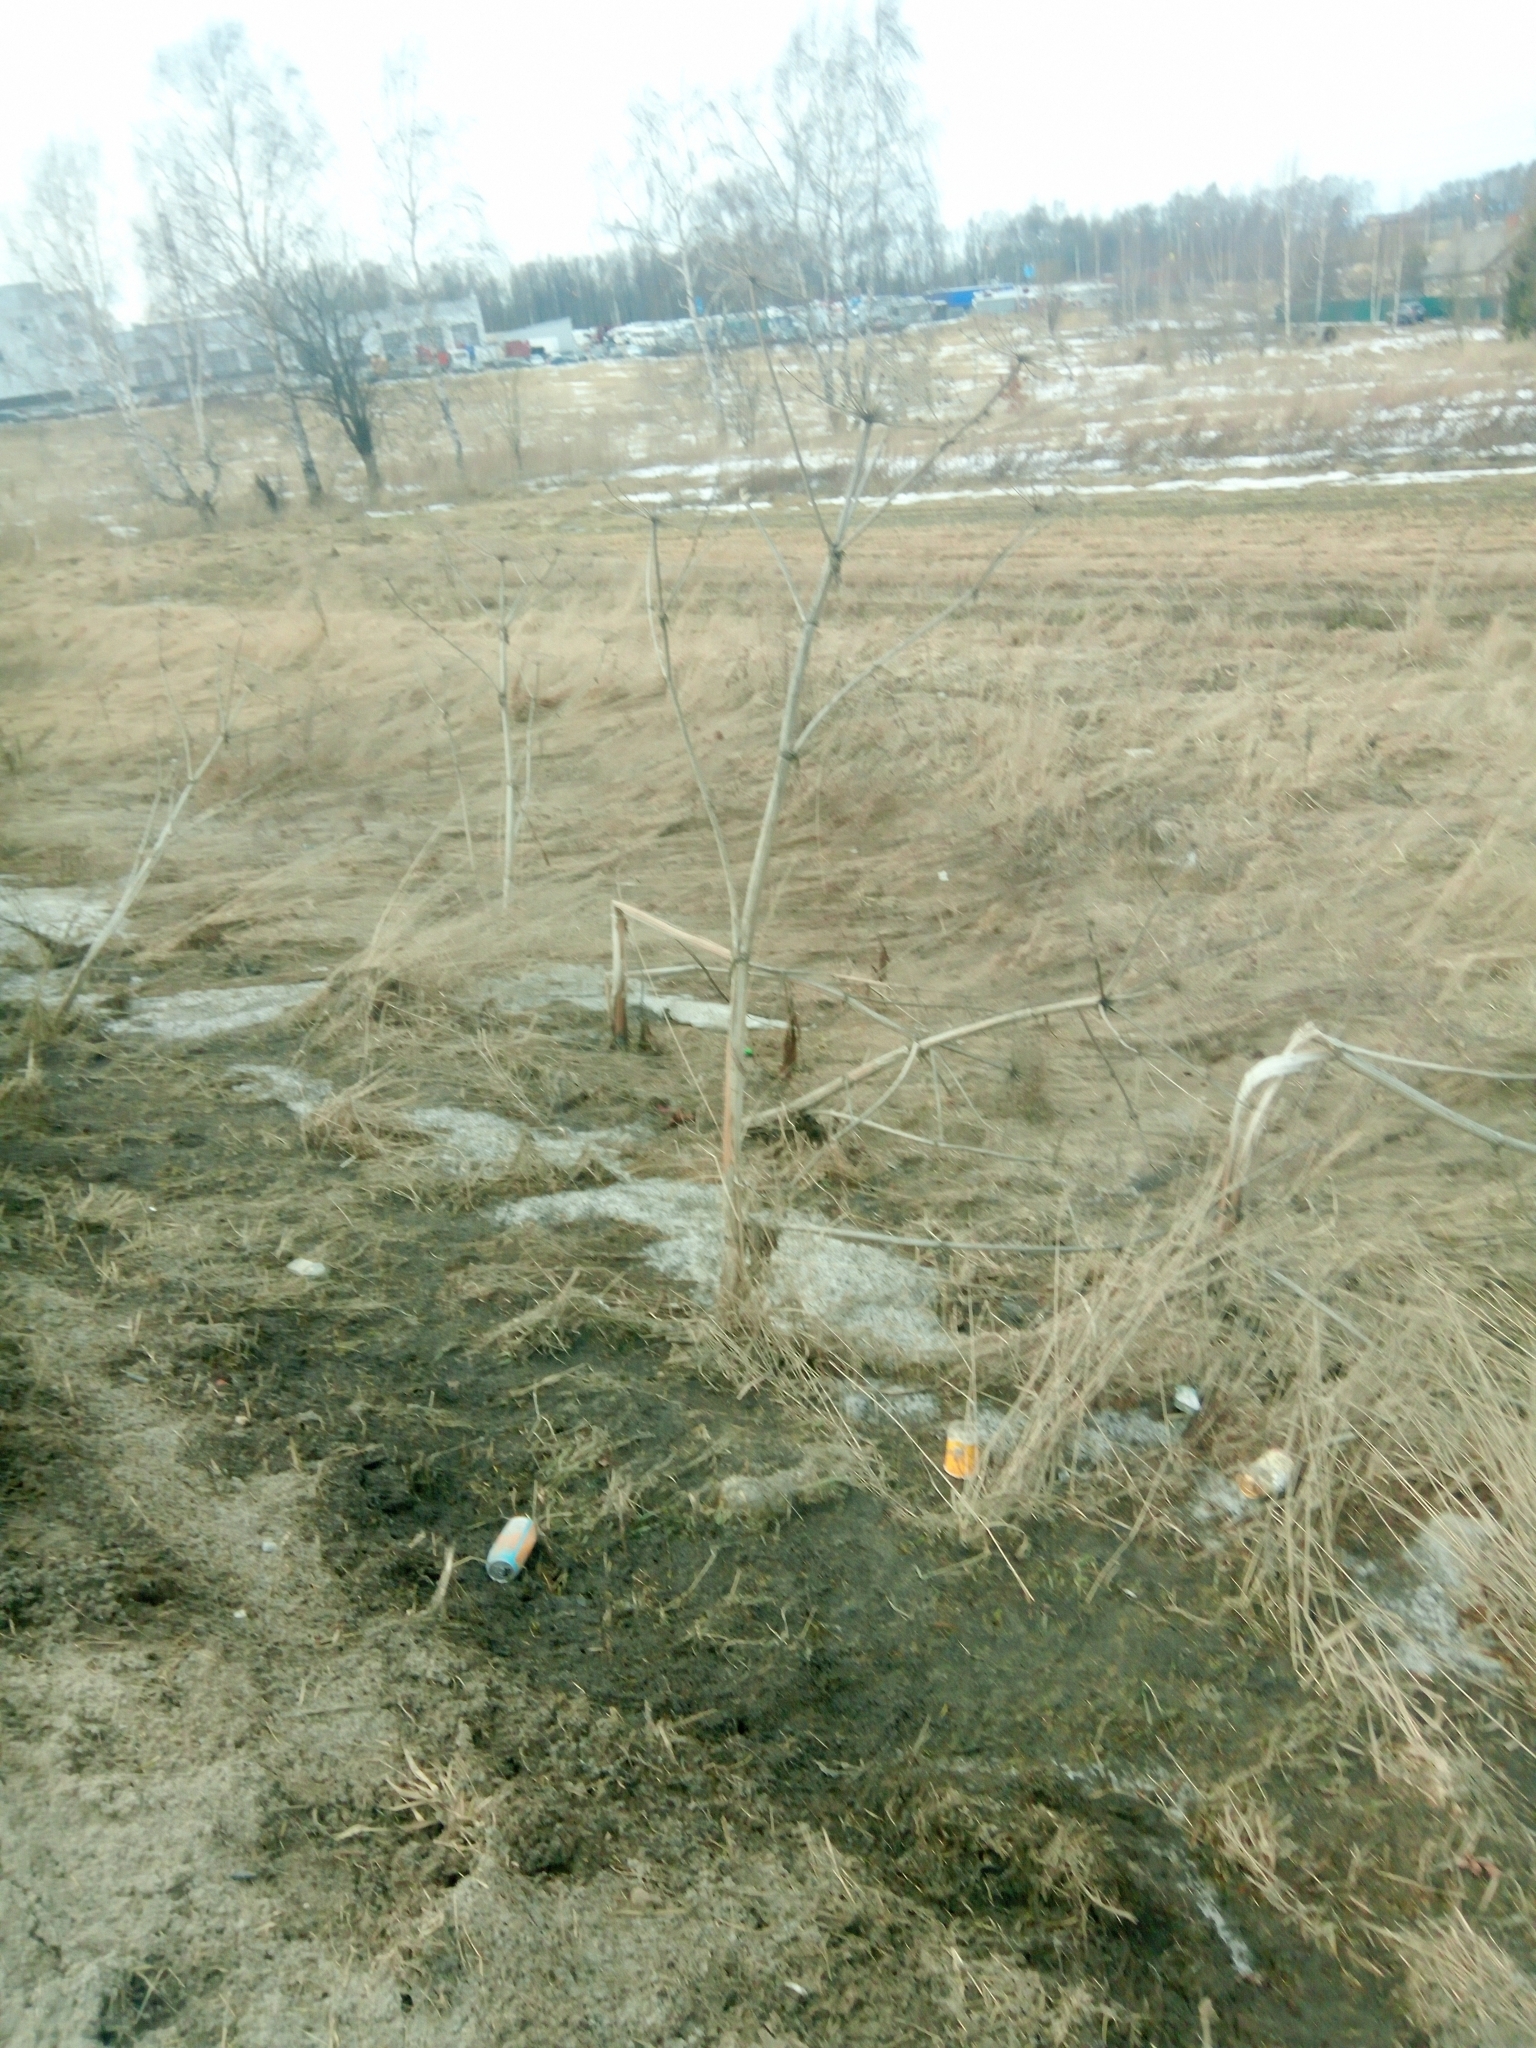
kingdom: Plantae
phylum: Tracheophyta
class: Magnoliopsida
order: Apiales
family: Apiaceae
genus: Heracleum
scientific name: Heracleum sosnowskyi
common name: Sosnowsky's hogweed
